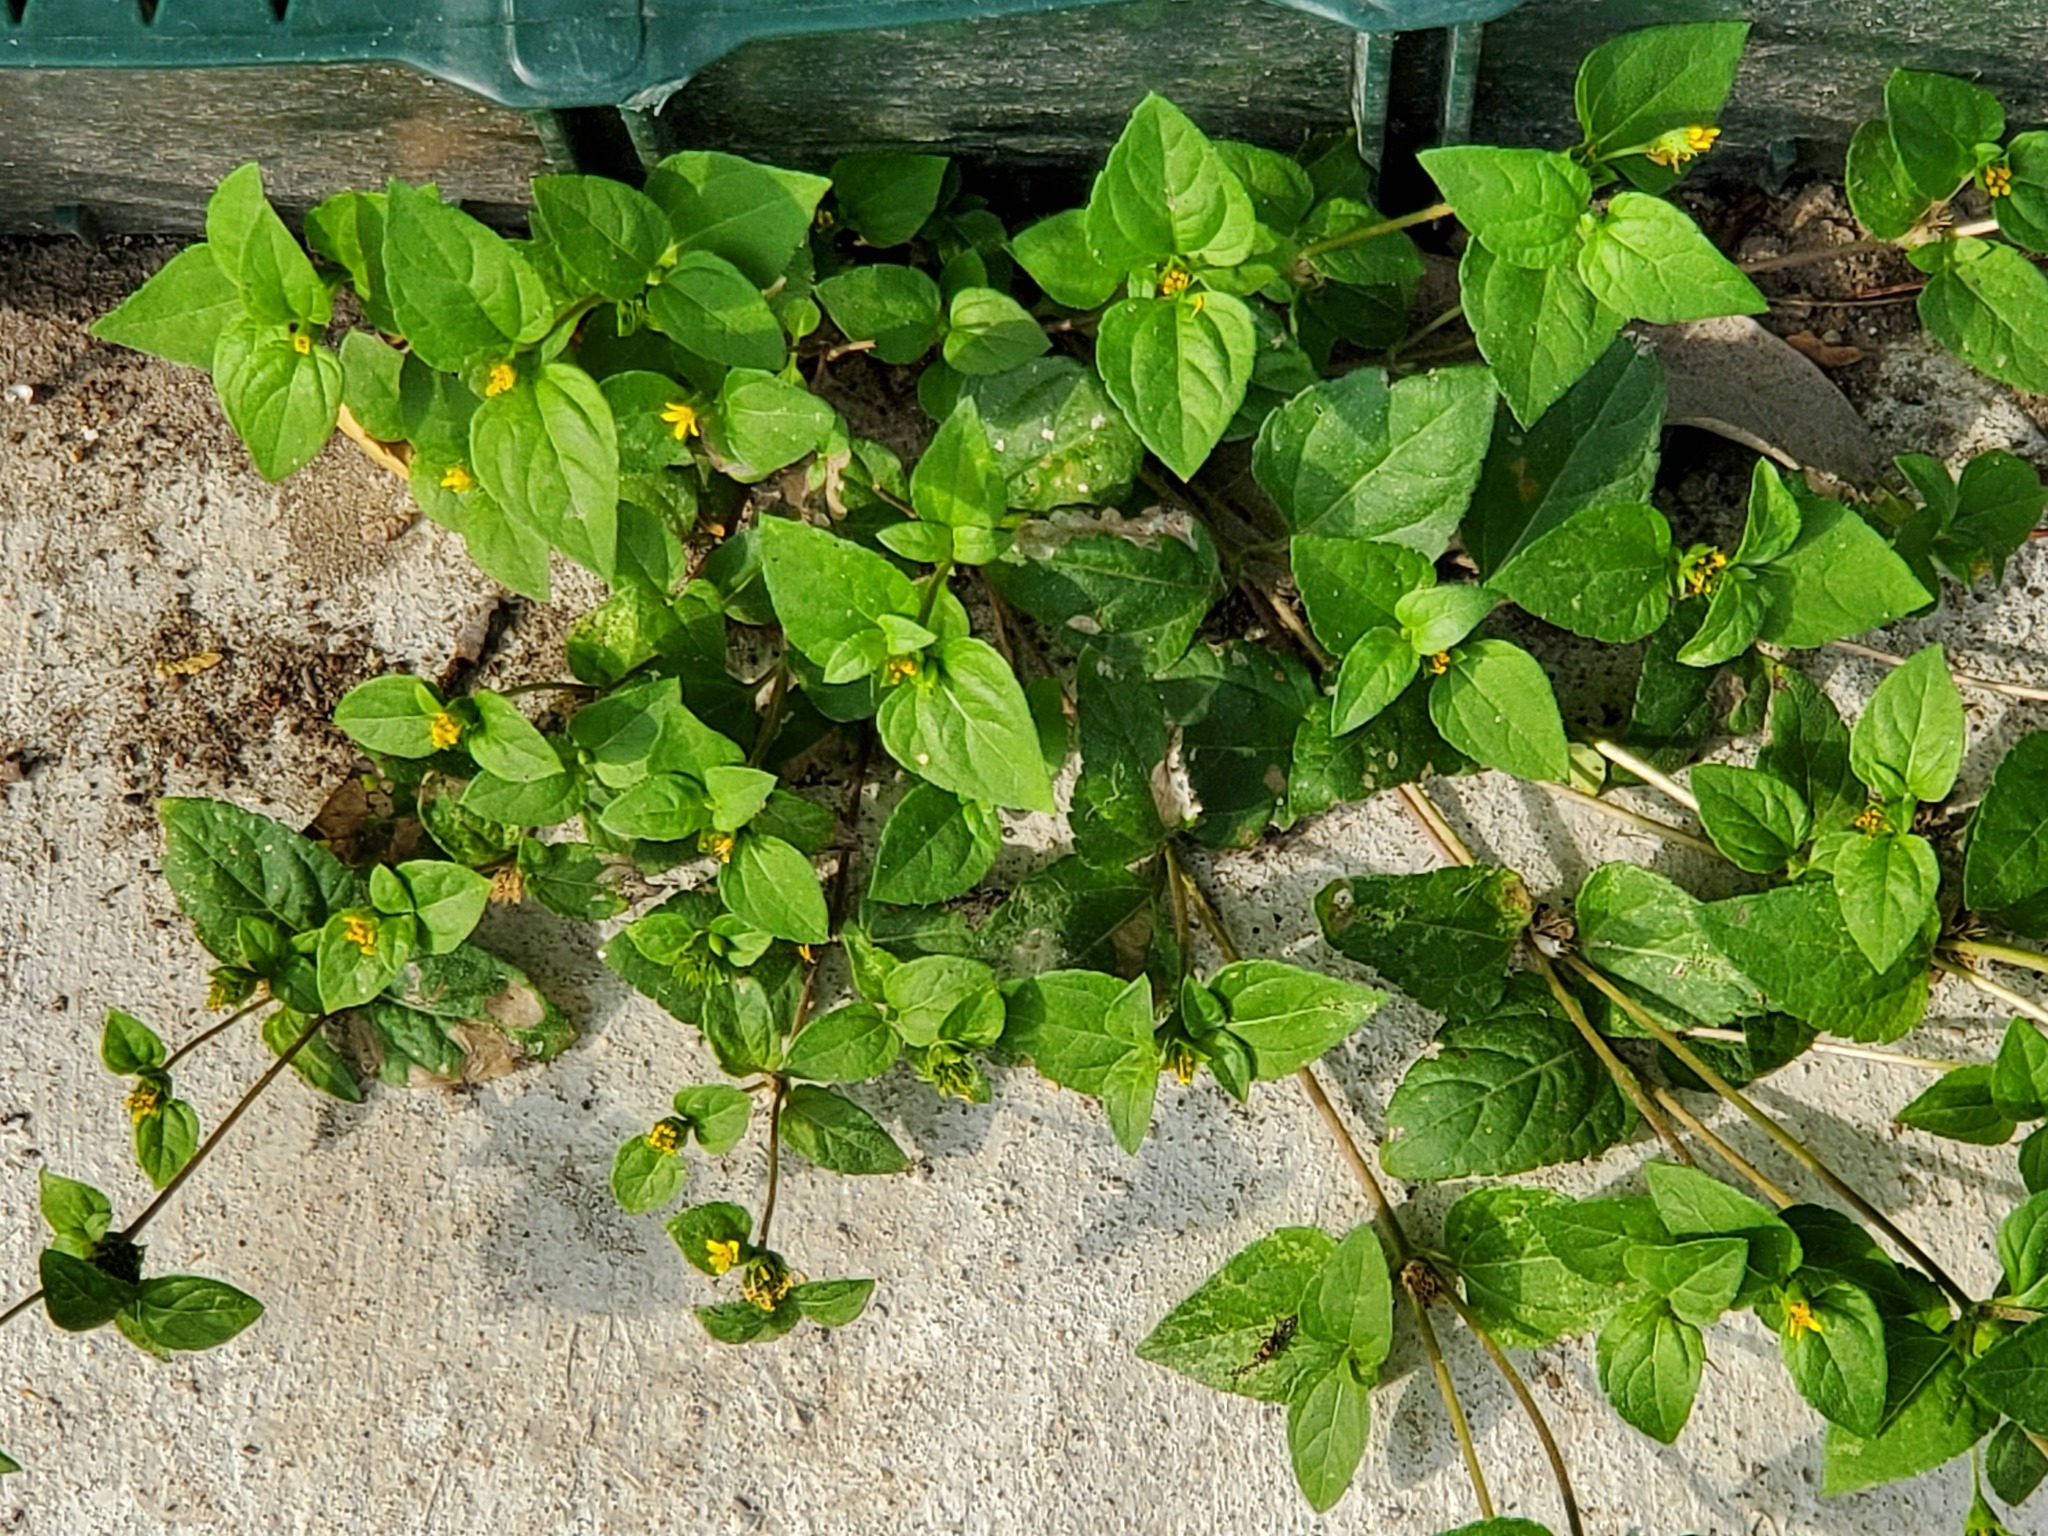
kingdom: Plantae
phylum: Tracheophyta
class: Magnoliopsida
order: Asterales
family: Asteraceae
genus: Calyptocarpus
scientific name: Calyptocarpus vialis
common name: Straggler daisy
